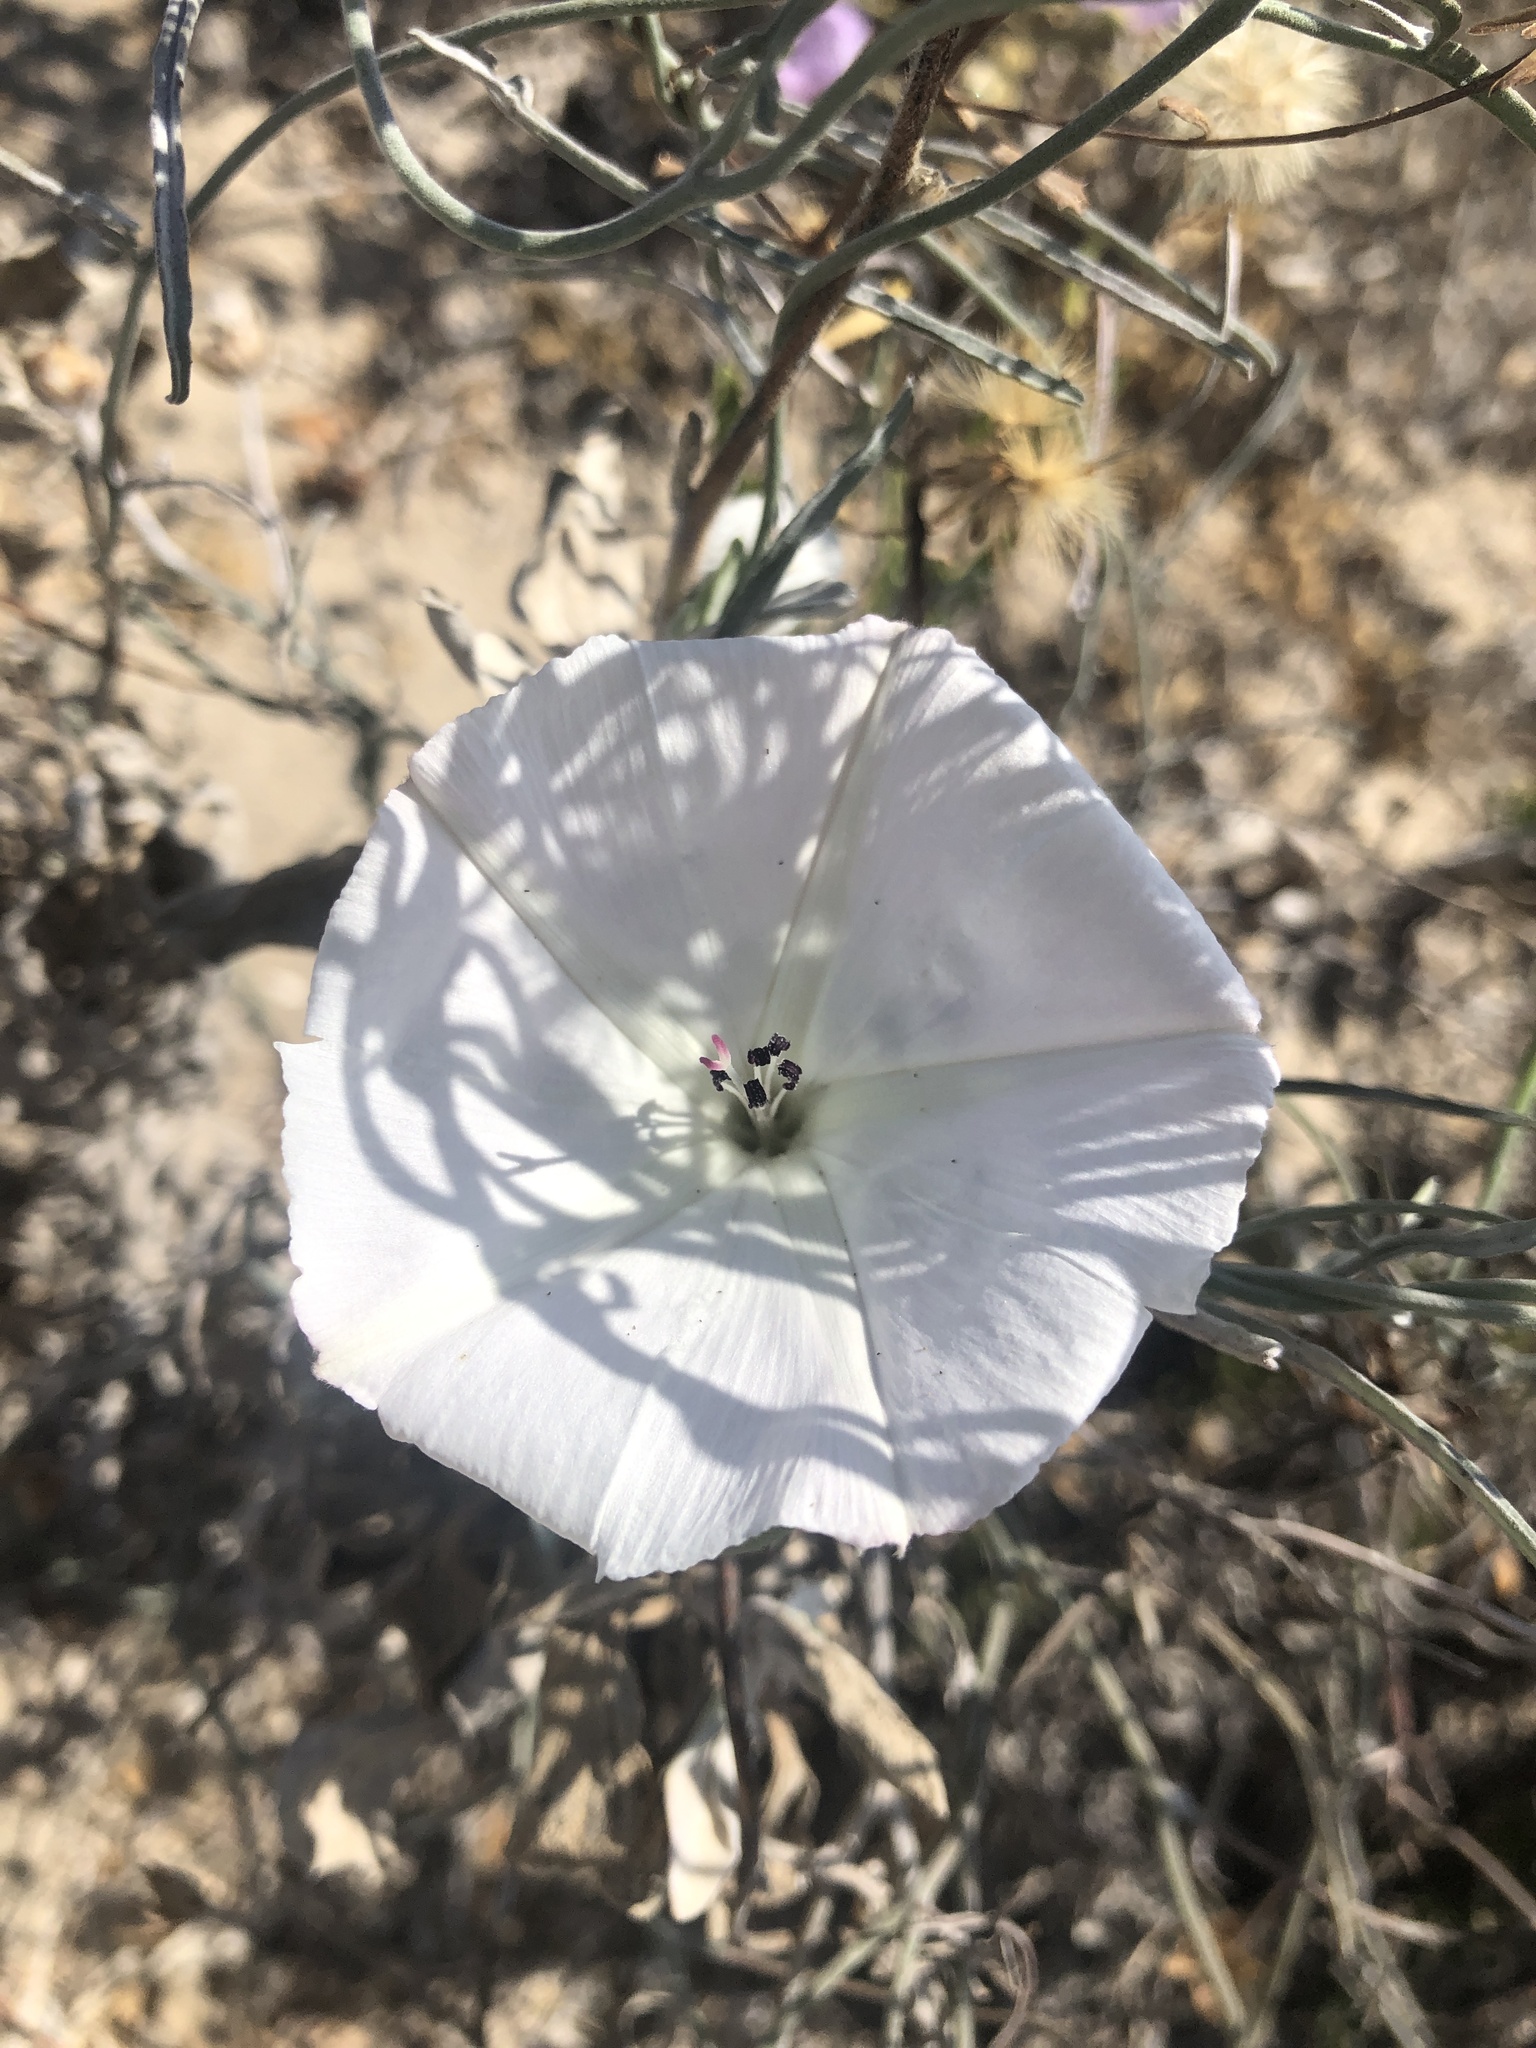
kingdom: Plantae
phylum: Tracheophyta
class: Magnoliopsida
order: Solanales
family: Convolvulaceae
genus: Convolvulus
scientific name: Convolvulus chilensis
